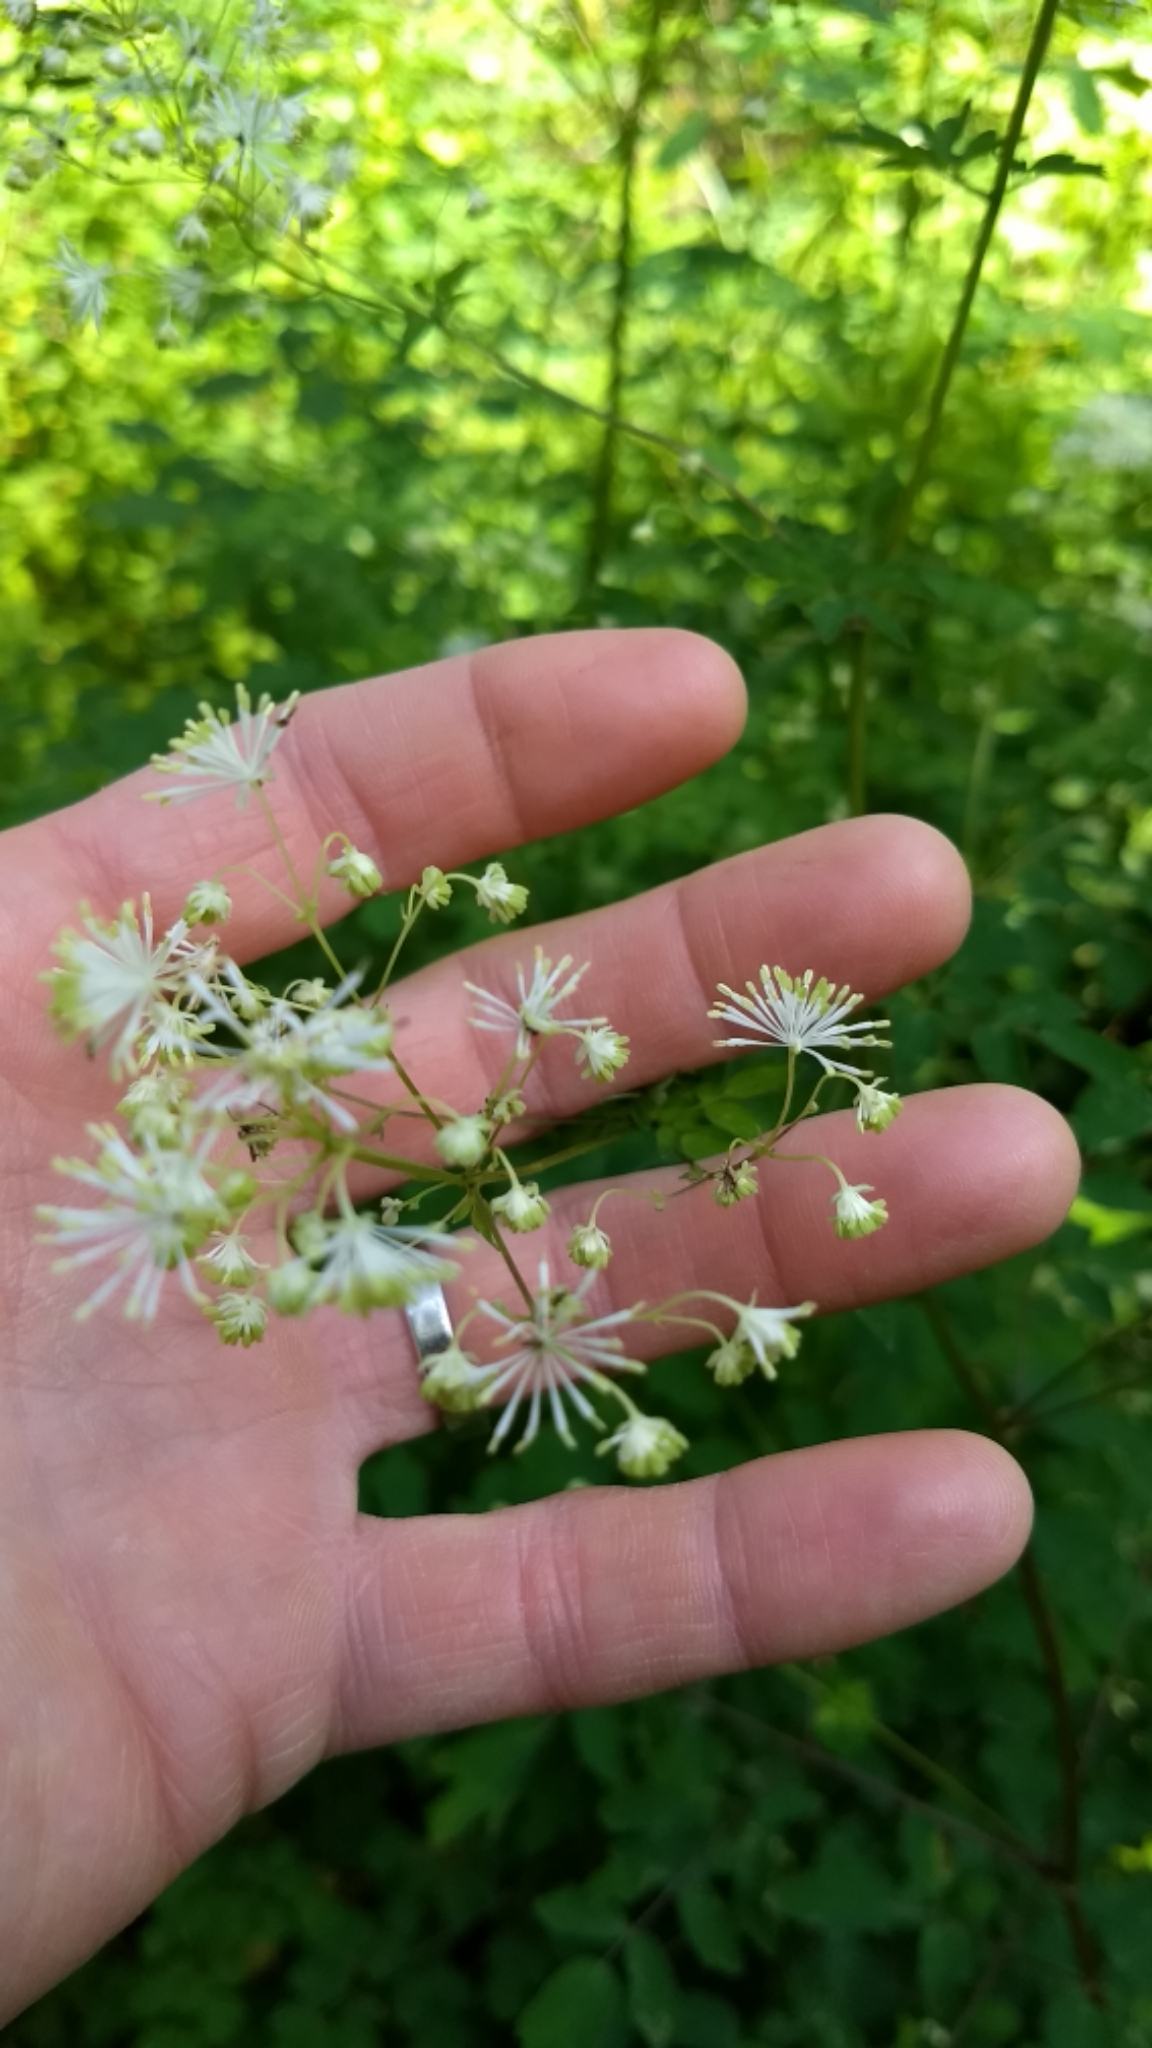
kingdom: Plantae
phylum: Tracheophyta
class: Magnoliopsida
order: Ranunculales
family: Ranunculaceae
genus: Thalictrum
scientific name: Thalictrum pubescens
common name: King-of-the-meadow
